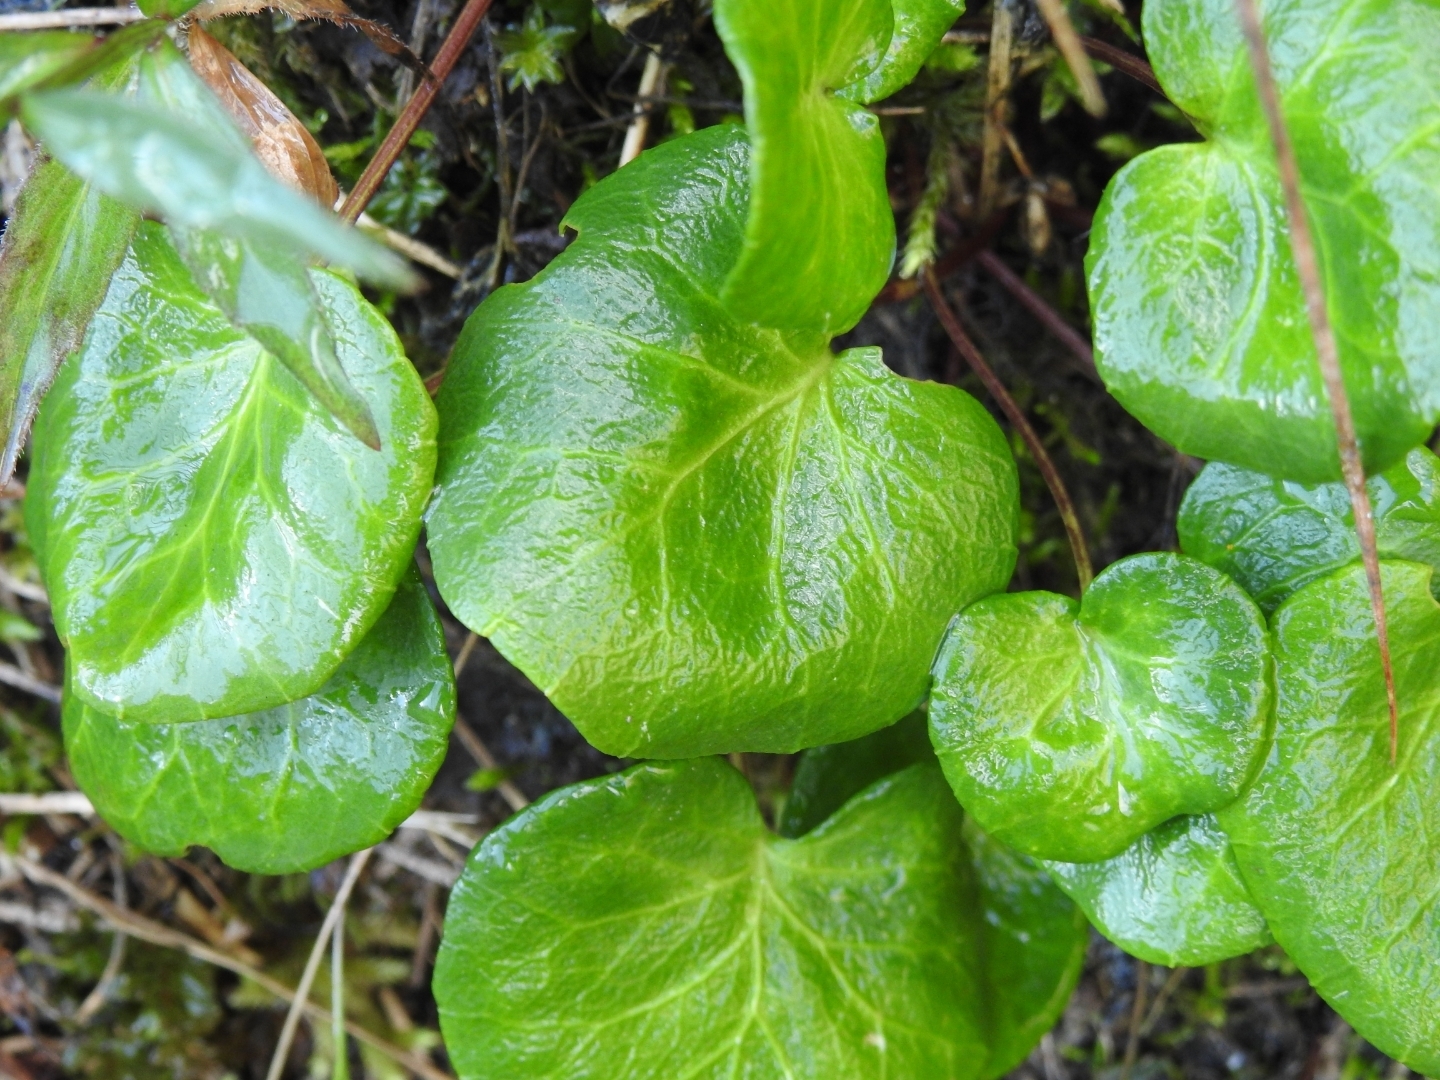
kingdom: Plantae
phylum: Tracheophyta
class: Magnoliopsida
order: Ericales
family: Primulaceae
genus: Soldanella
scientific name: Soldanella alpina
